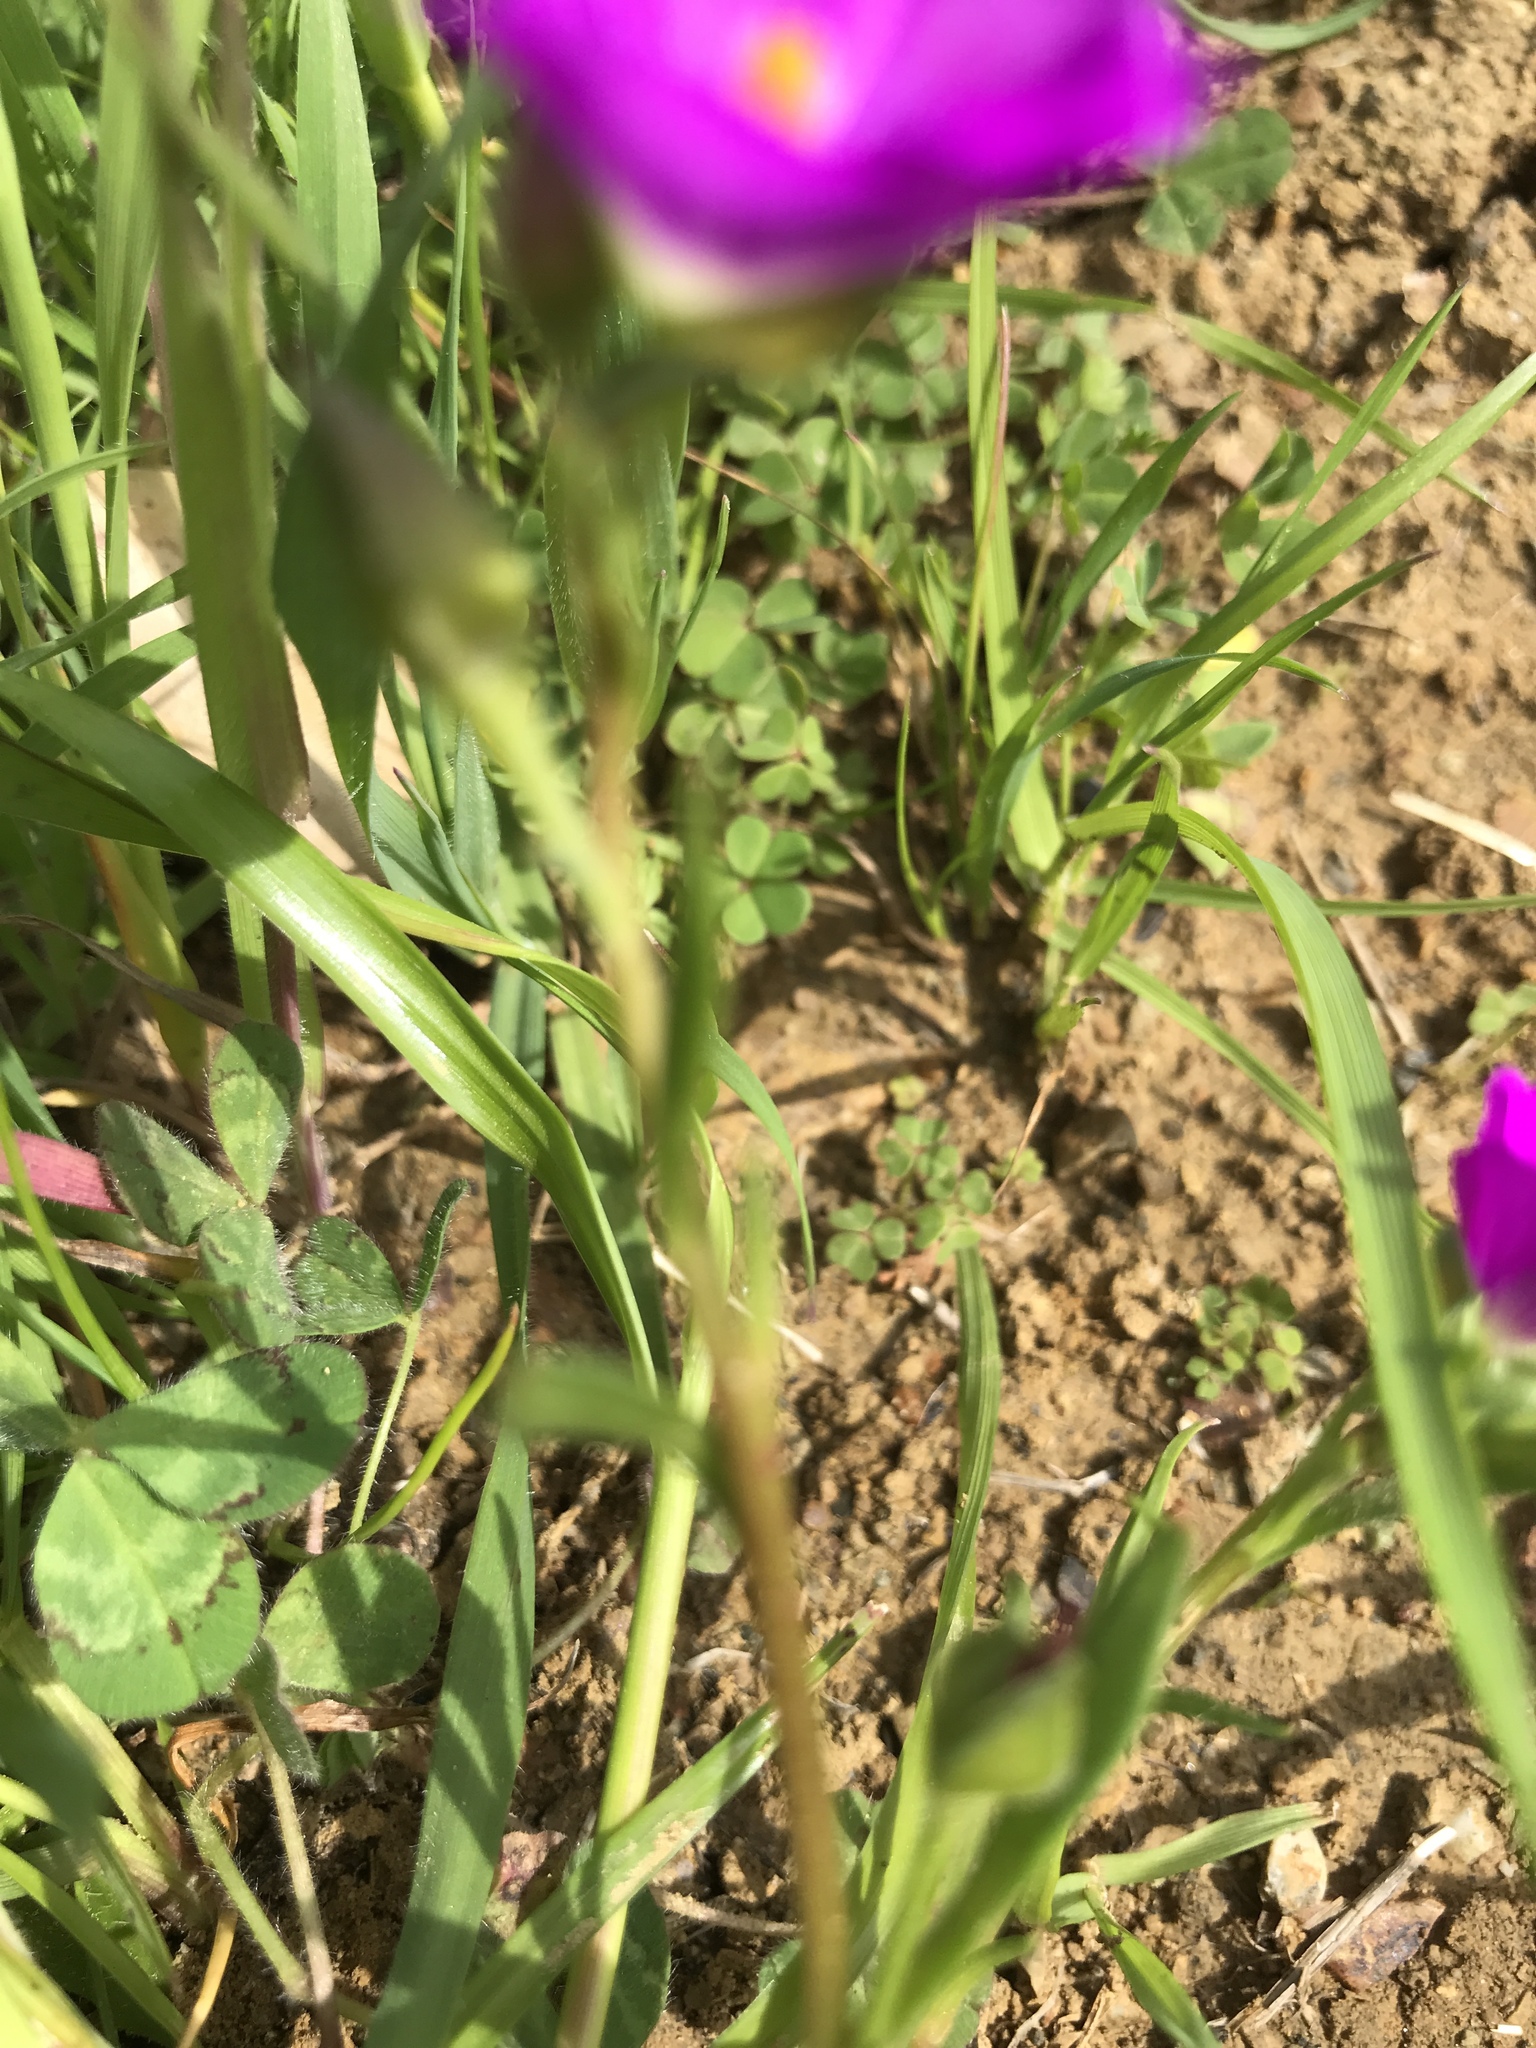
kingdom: Plantae
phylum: Tracheophyta
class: Magnoliopsida
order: Caryophyllales
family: Montiaceae
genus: Calandrinia
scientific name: Calandrinia menziesii
